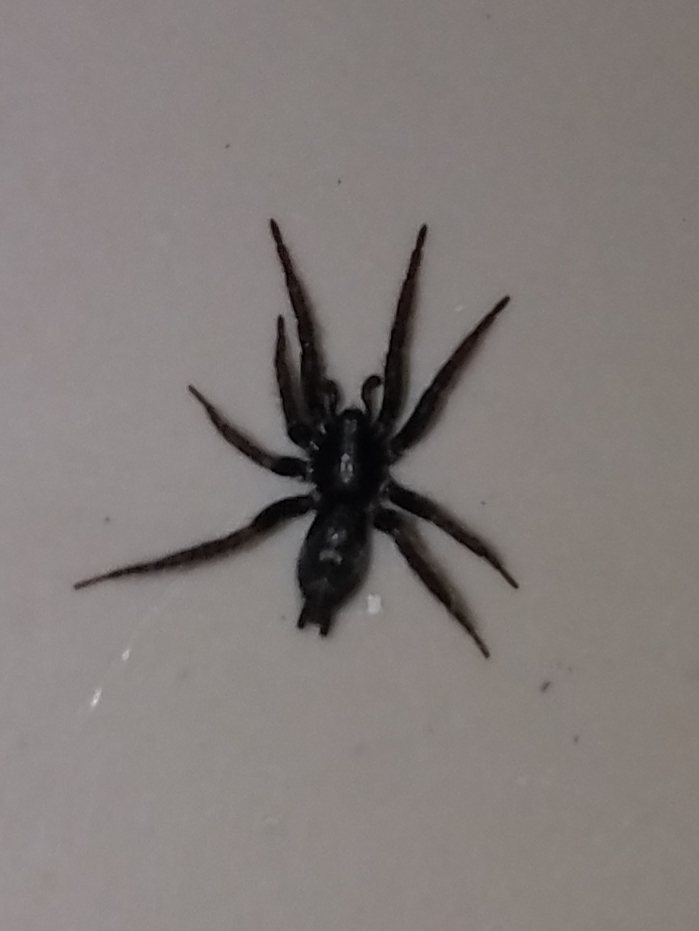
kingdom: Animalia
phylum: Arthropoda
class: Arachnida
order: Araneae
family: Gnaphosidae
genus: Herpyllus
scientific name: Herpyllus ecclesiasticus
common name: Eastern parson spider
